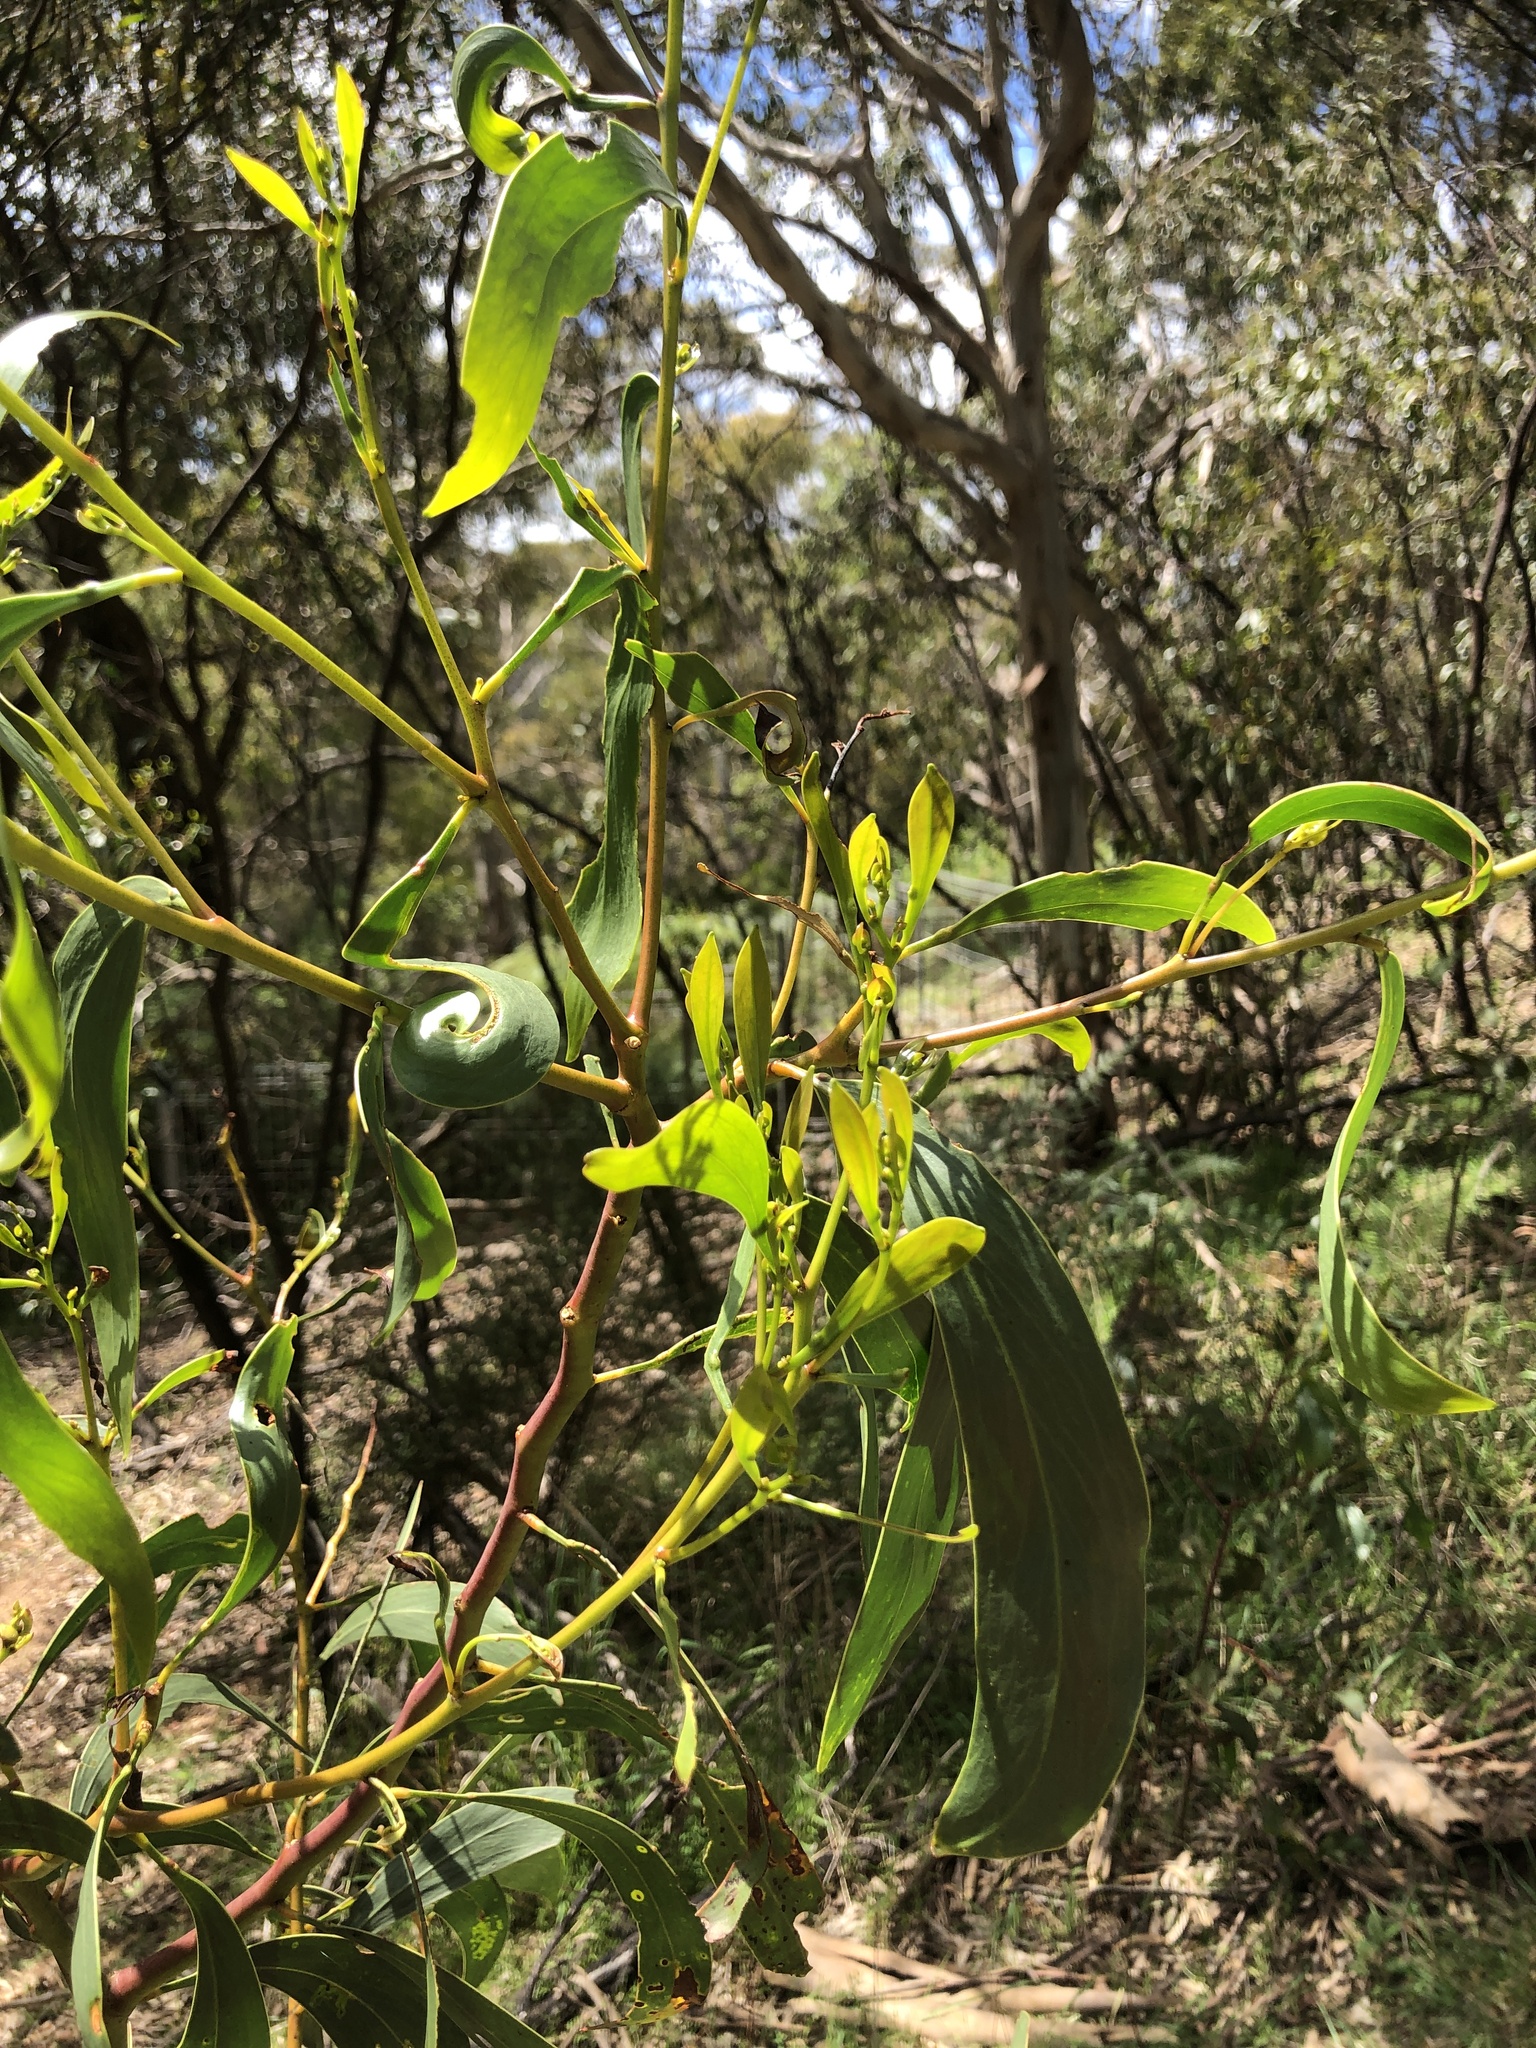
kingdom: Plantae
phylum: Tracheophyta
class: Magnoliopsida
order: Fabales
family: Fabaceae
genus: Acacia
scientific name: Acacia pycnantha
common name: Golden wattle
